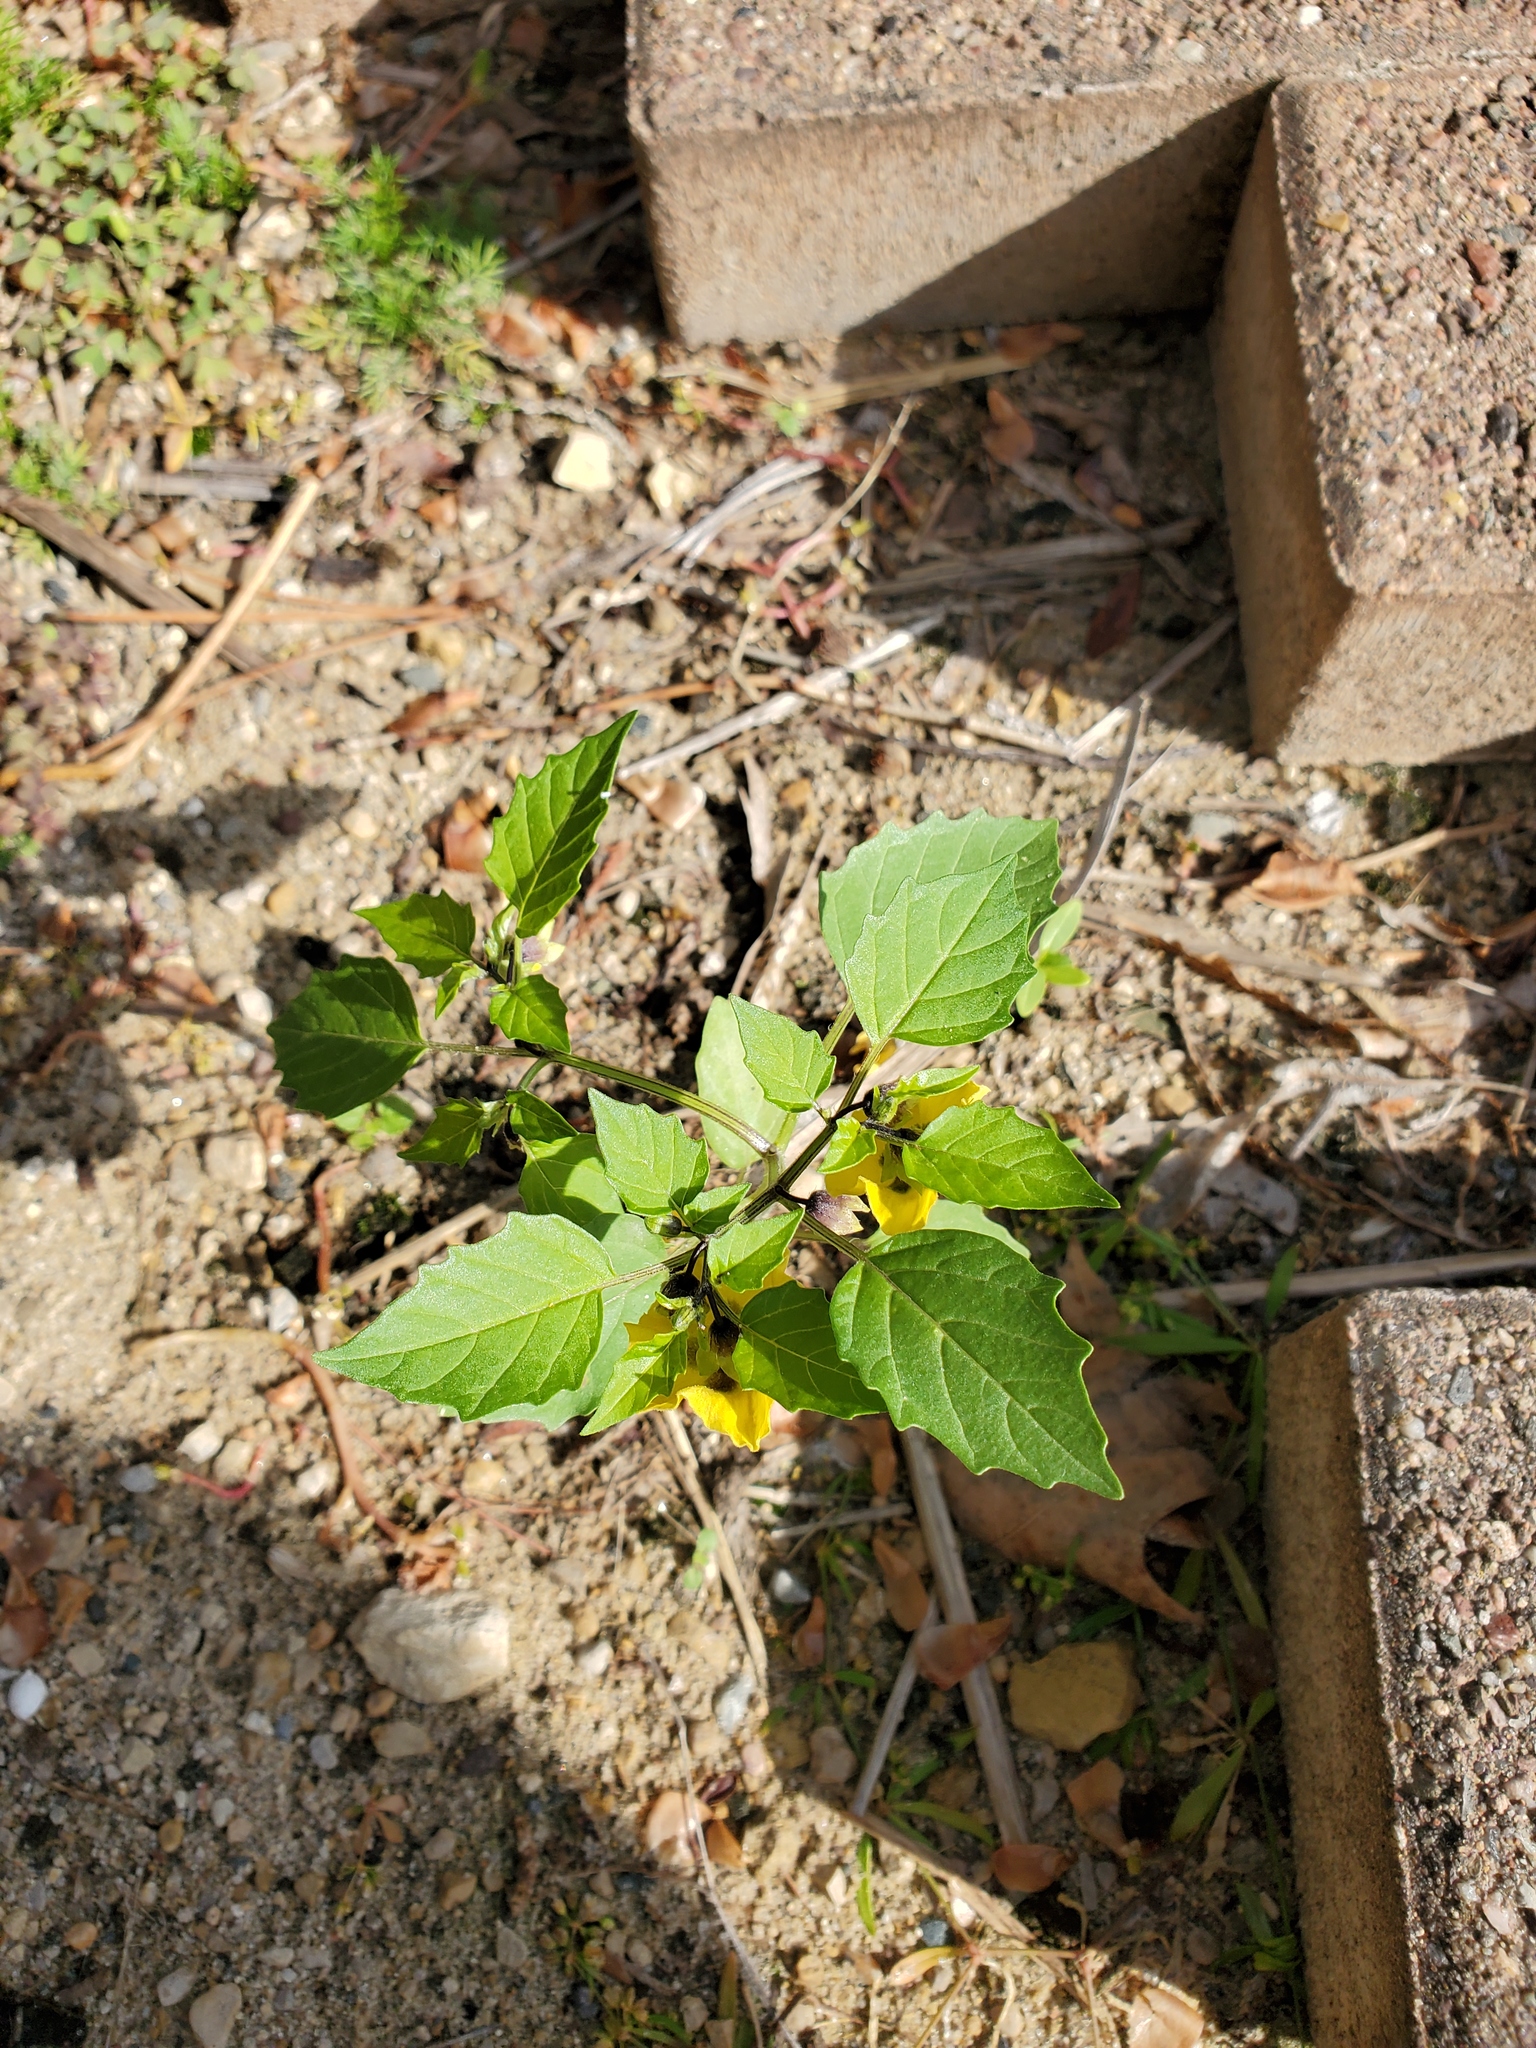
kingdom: Plantae
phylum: Tracheophyta
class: Magnoliopsida
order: Solanales
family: Solanaceae
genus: Physalis
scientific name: Physalis philadelphica
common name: Husk-tomato
